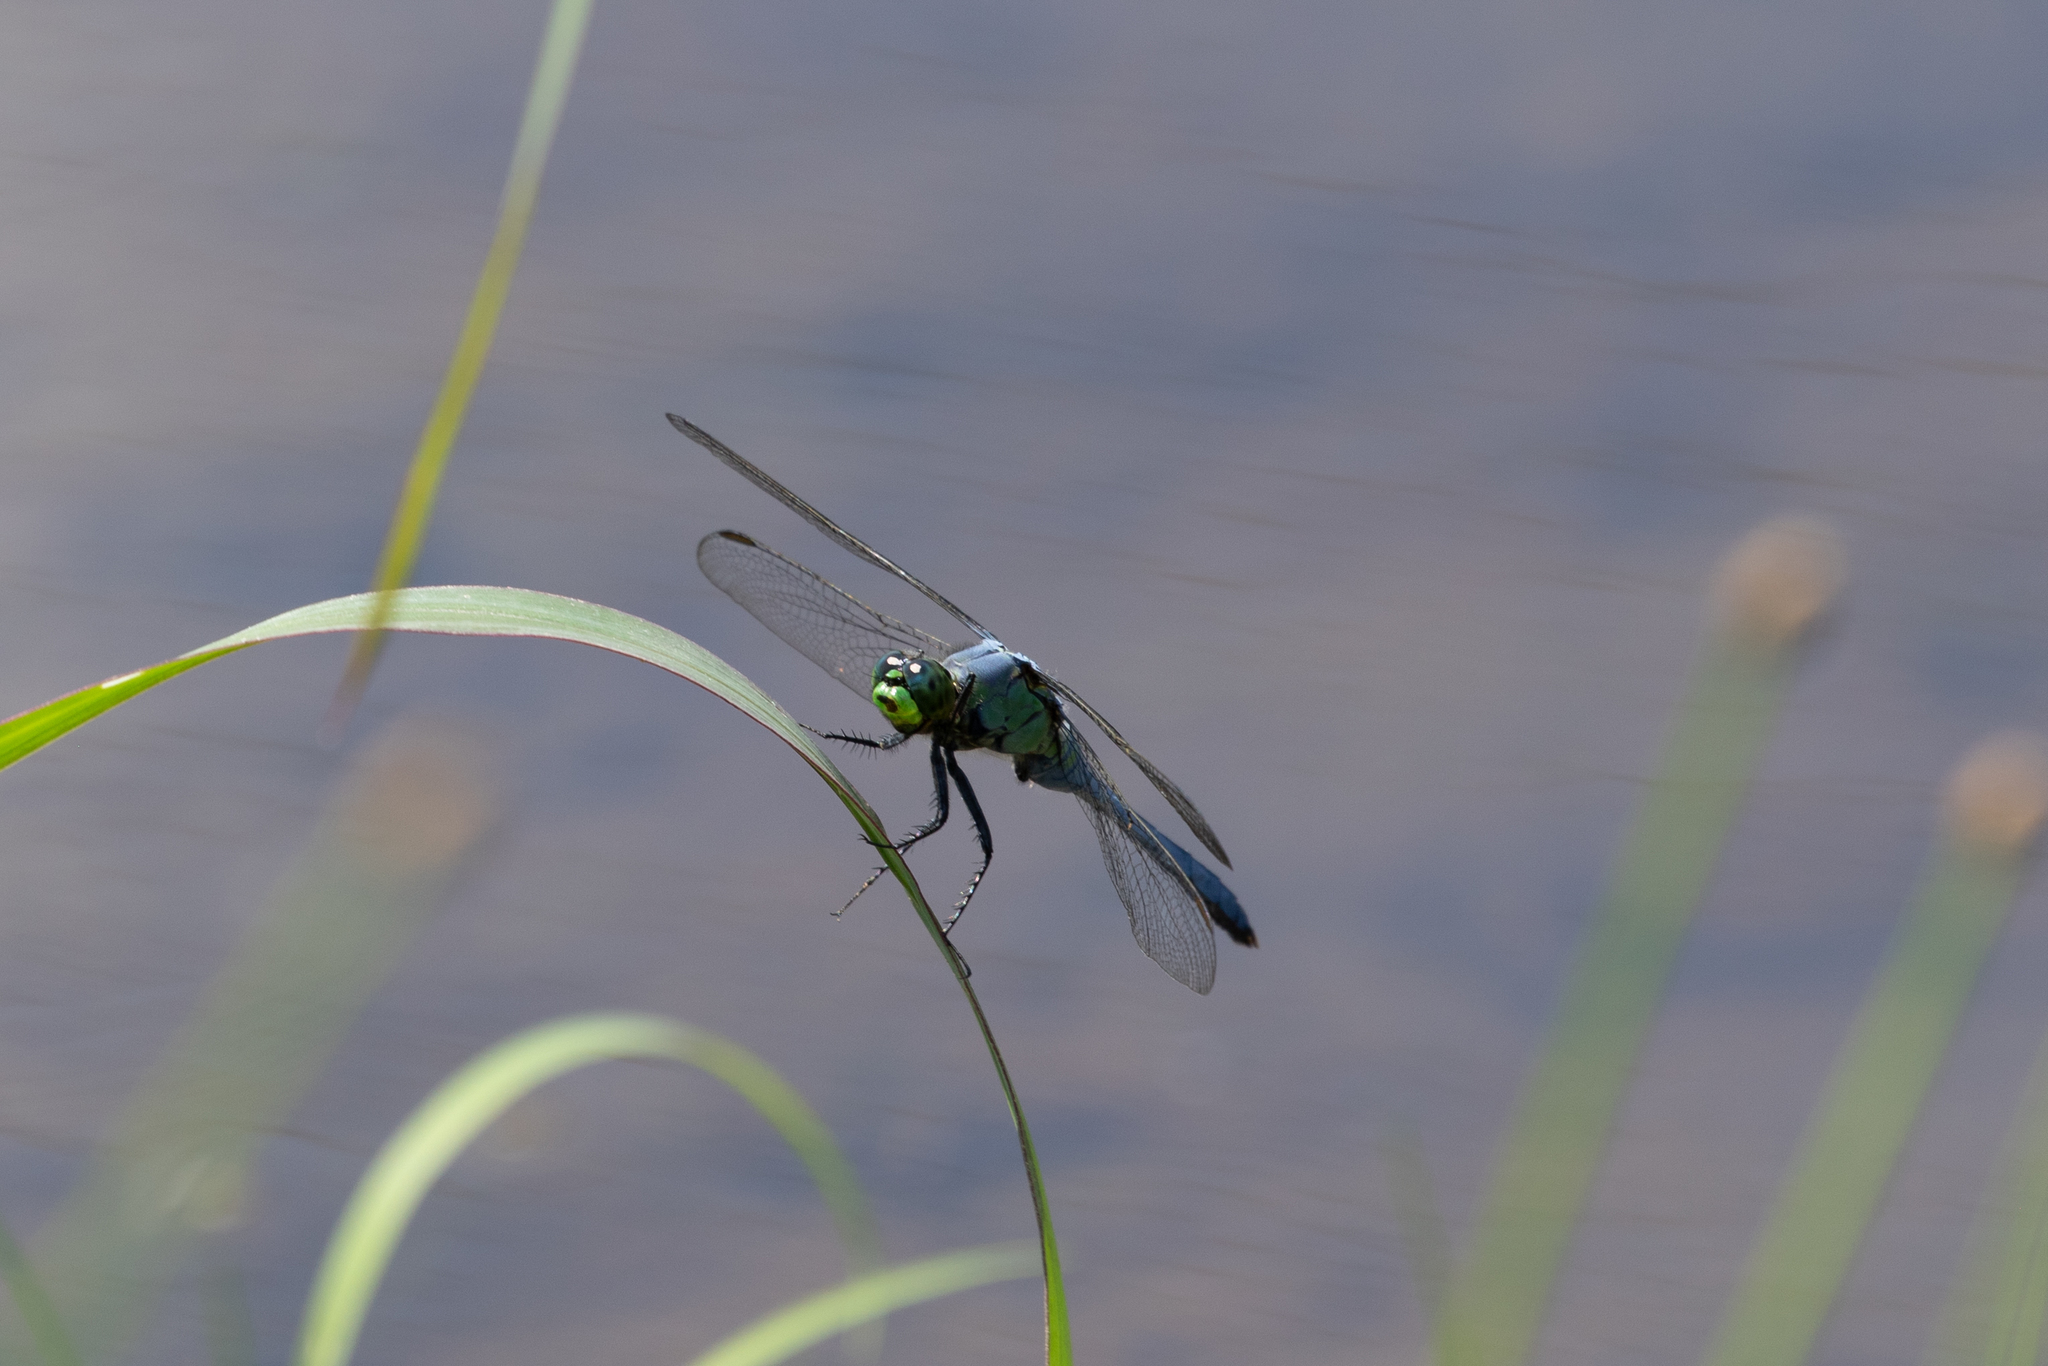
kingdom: Animalia
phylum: Arthropoda
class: Insecta
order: Odonata
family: Libellulidae
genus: Erythemis
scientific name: Erythemis simplicicollis
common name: Eastern pondhawk
